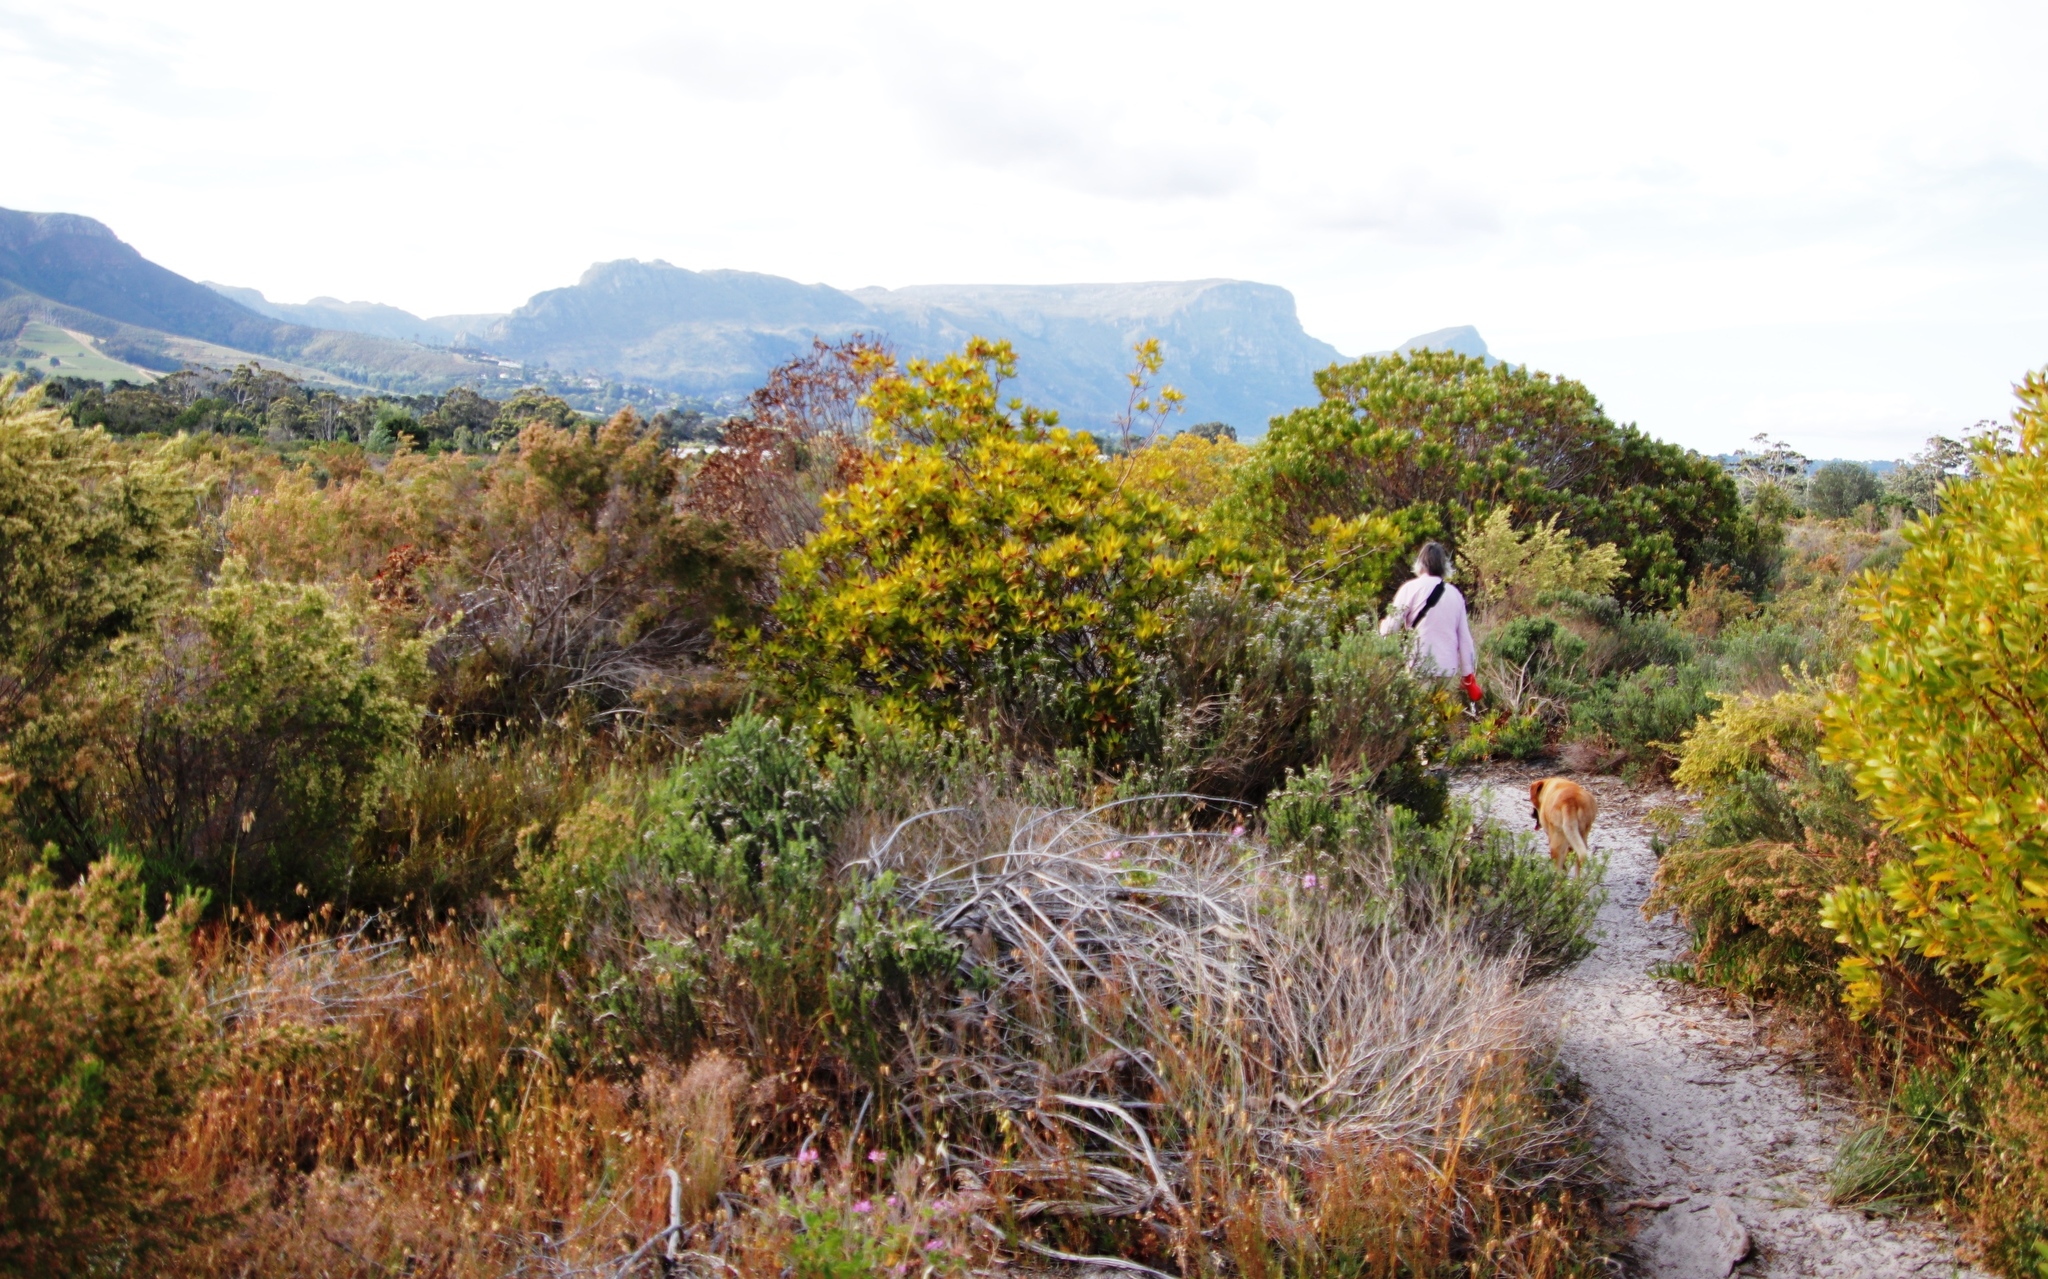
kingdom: Plantae
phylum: Tracheophyta
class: Magnoliopsida
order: Proteales
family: Proteaceae
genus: Leucadendron
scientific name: Leucadendron laureolum
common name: Golden sunshinebush
